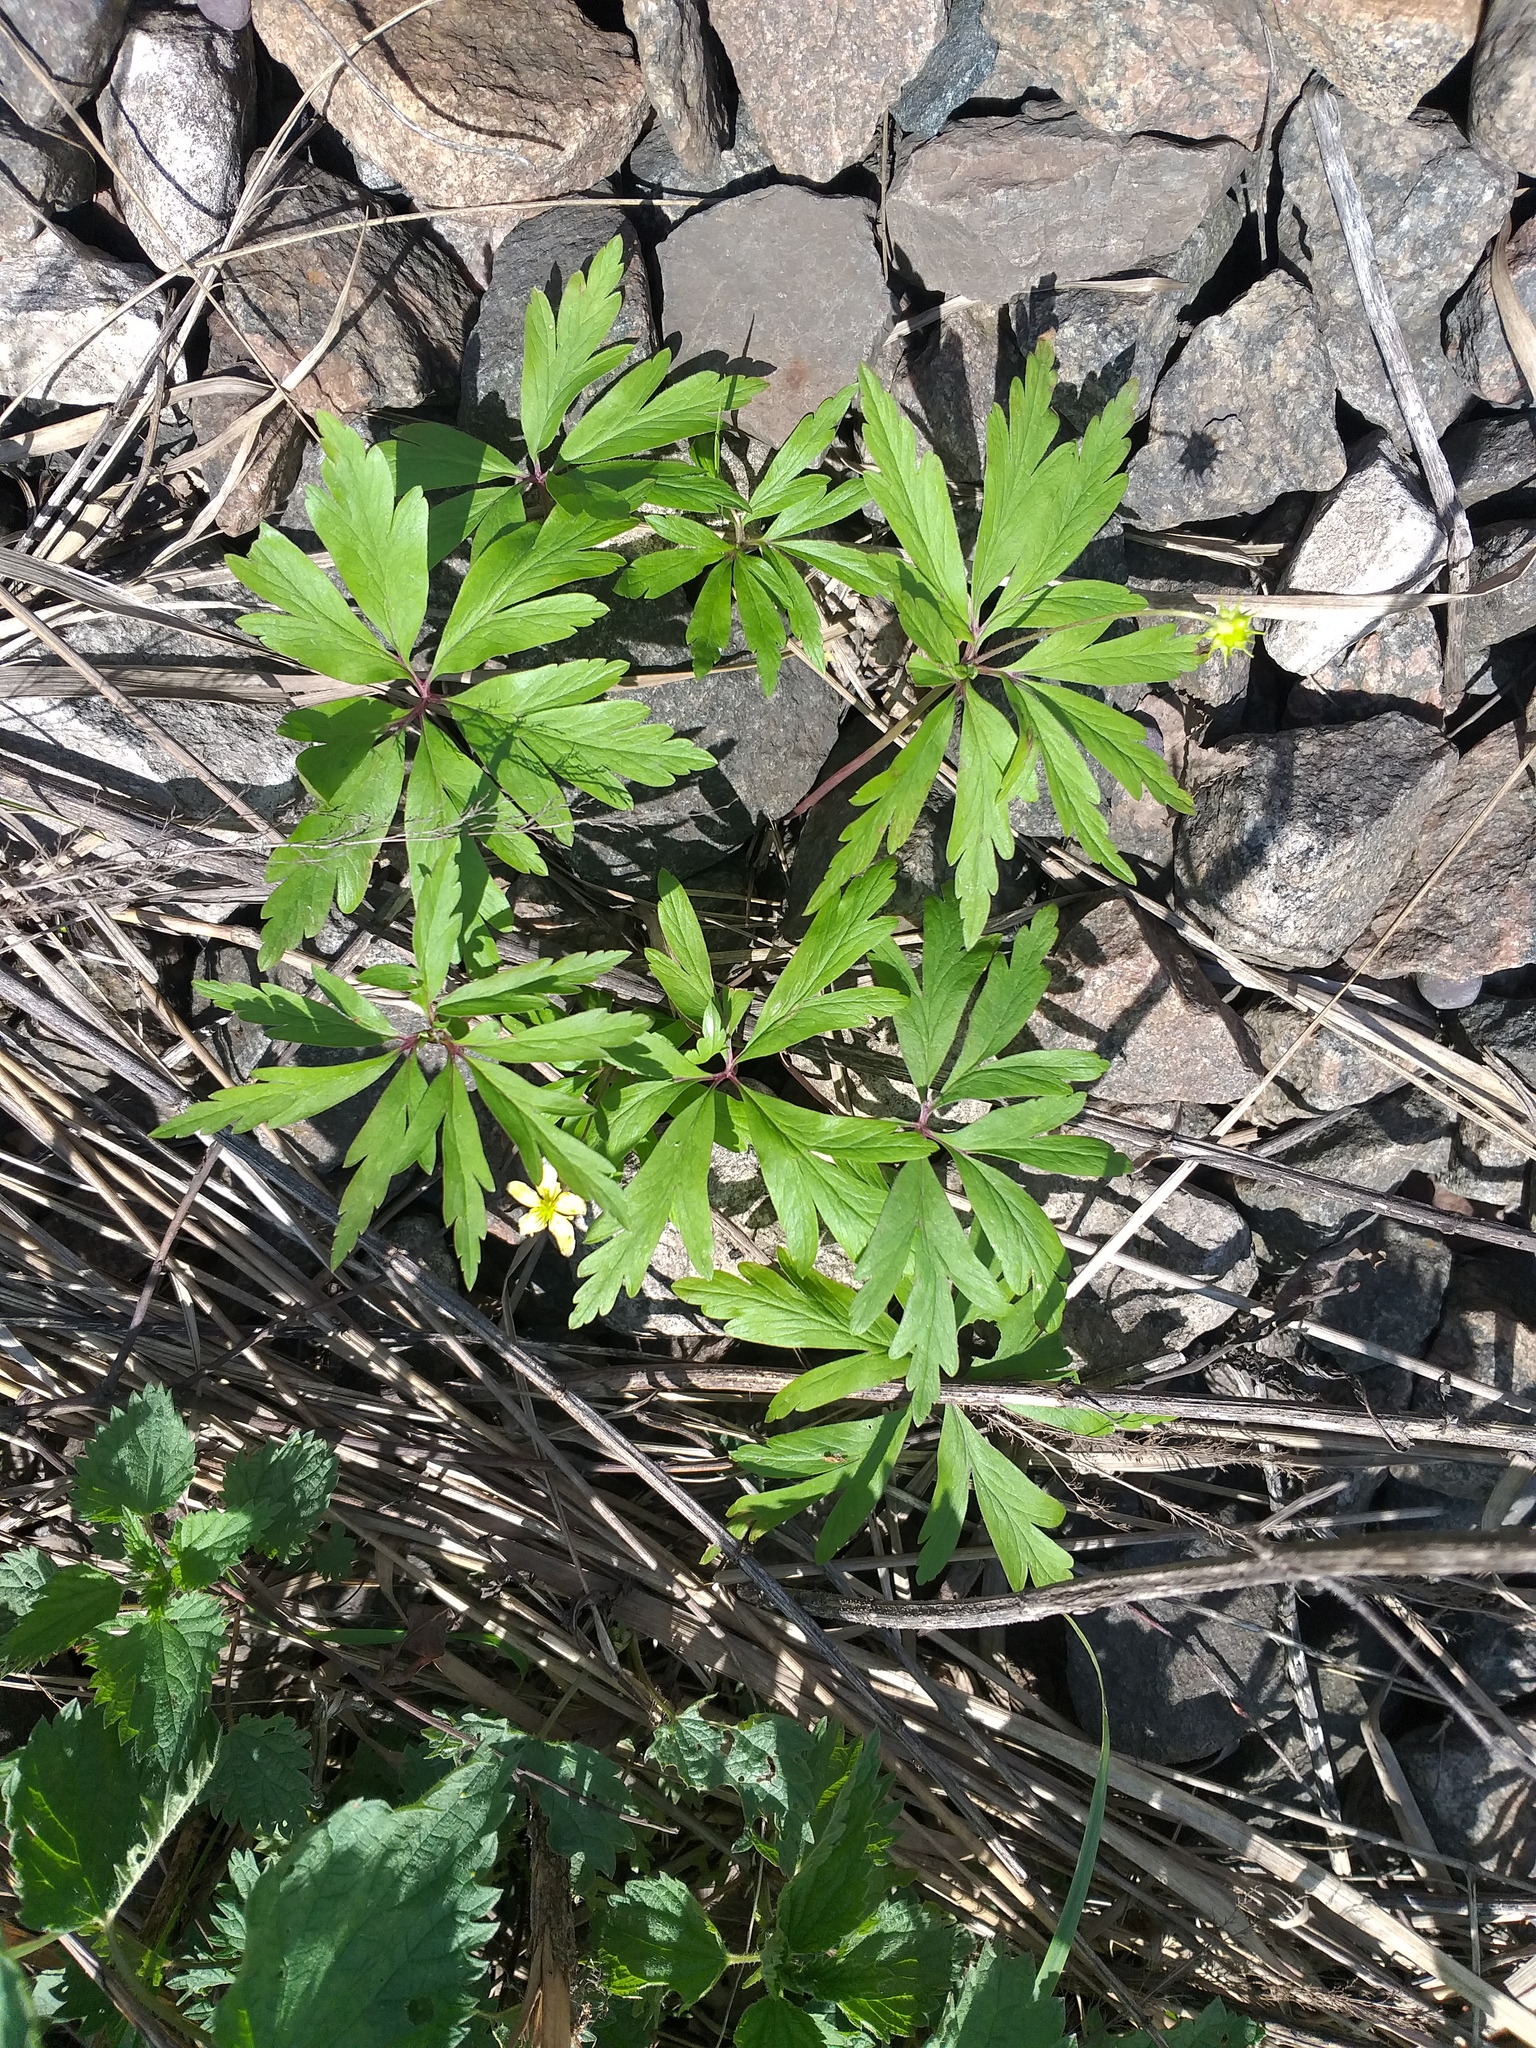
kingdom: Plantae
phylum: Tracheophyta
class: Magnoliopsida
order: Ranunculales
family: Ranunculaceae
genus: Anemone
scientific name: Anemone ranunculoides
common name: Yellow anemone
